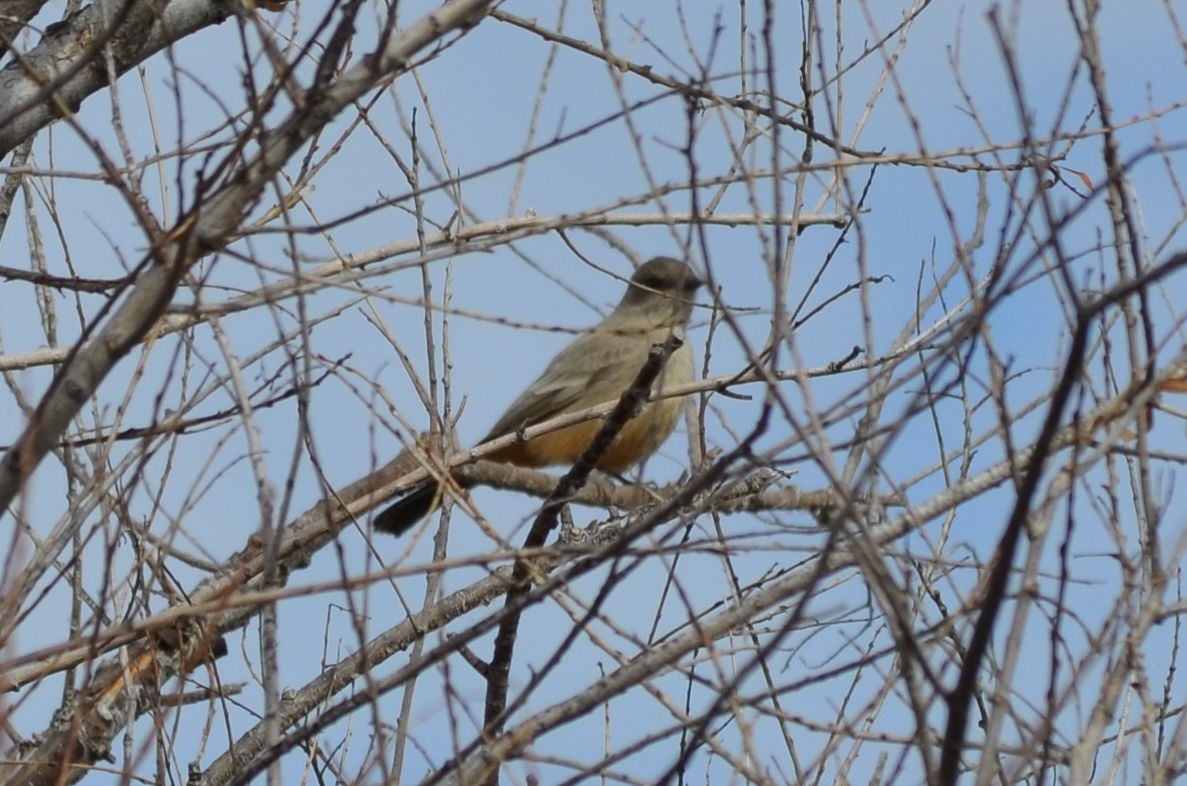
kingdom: Animalia
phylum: Chordata
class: Aves
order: Passeriformes
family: Tyrannidae
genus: Sayornis
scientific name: Sayornis saya
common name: Say's phoebe
